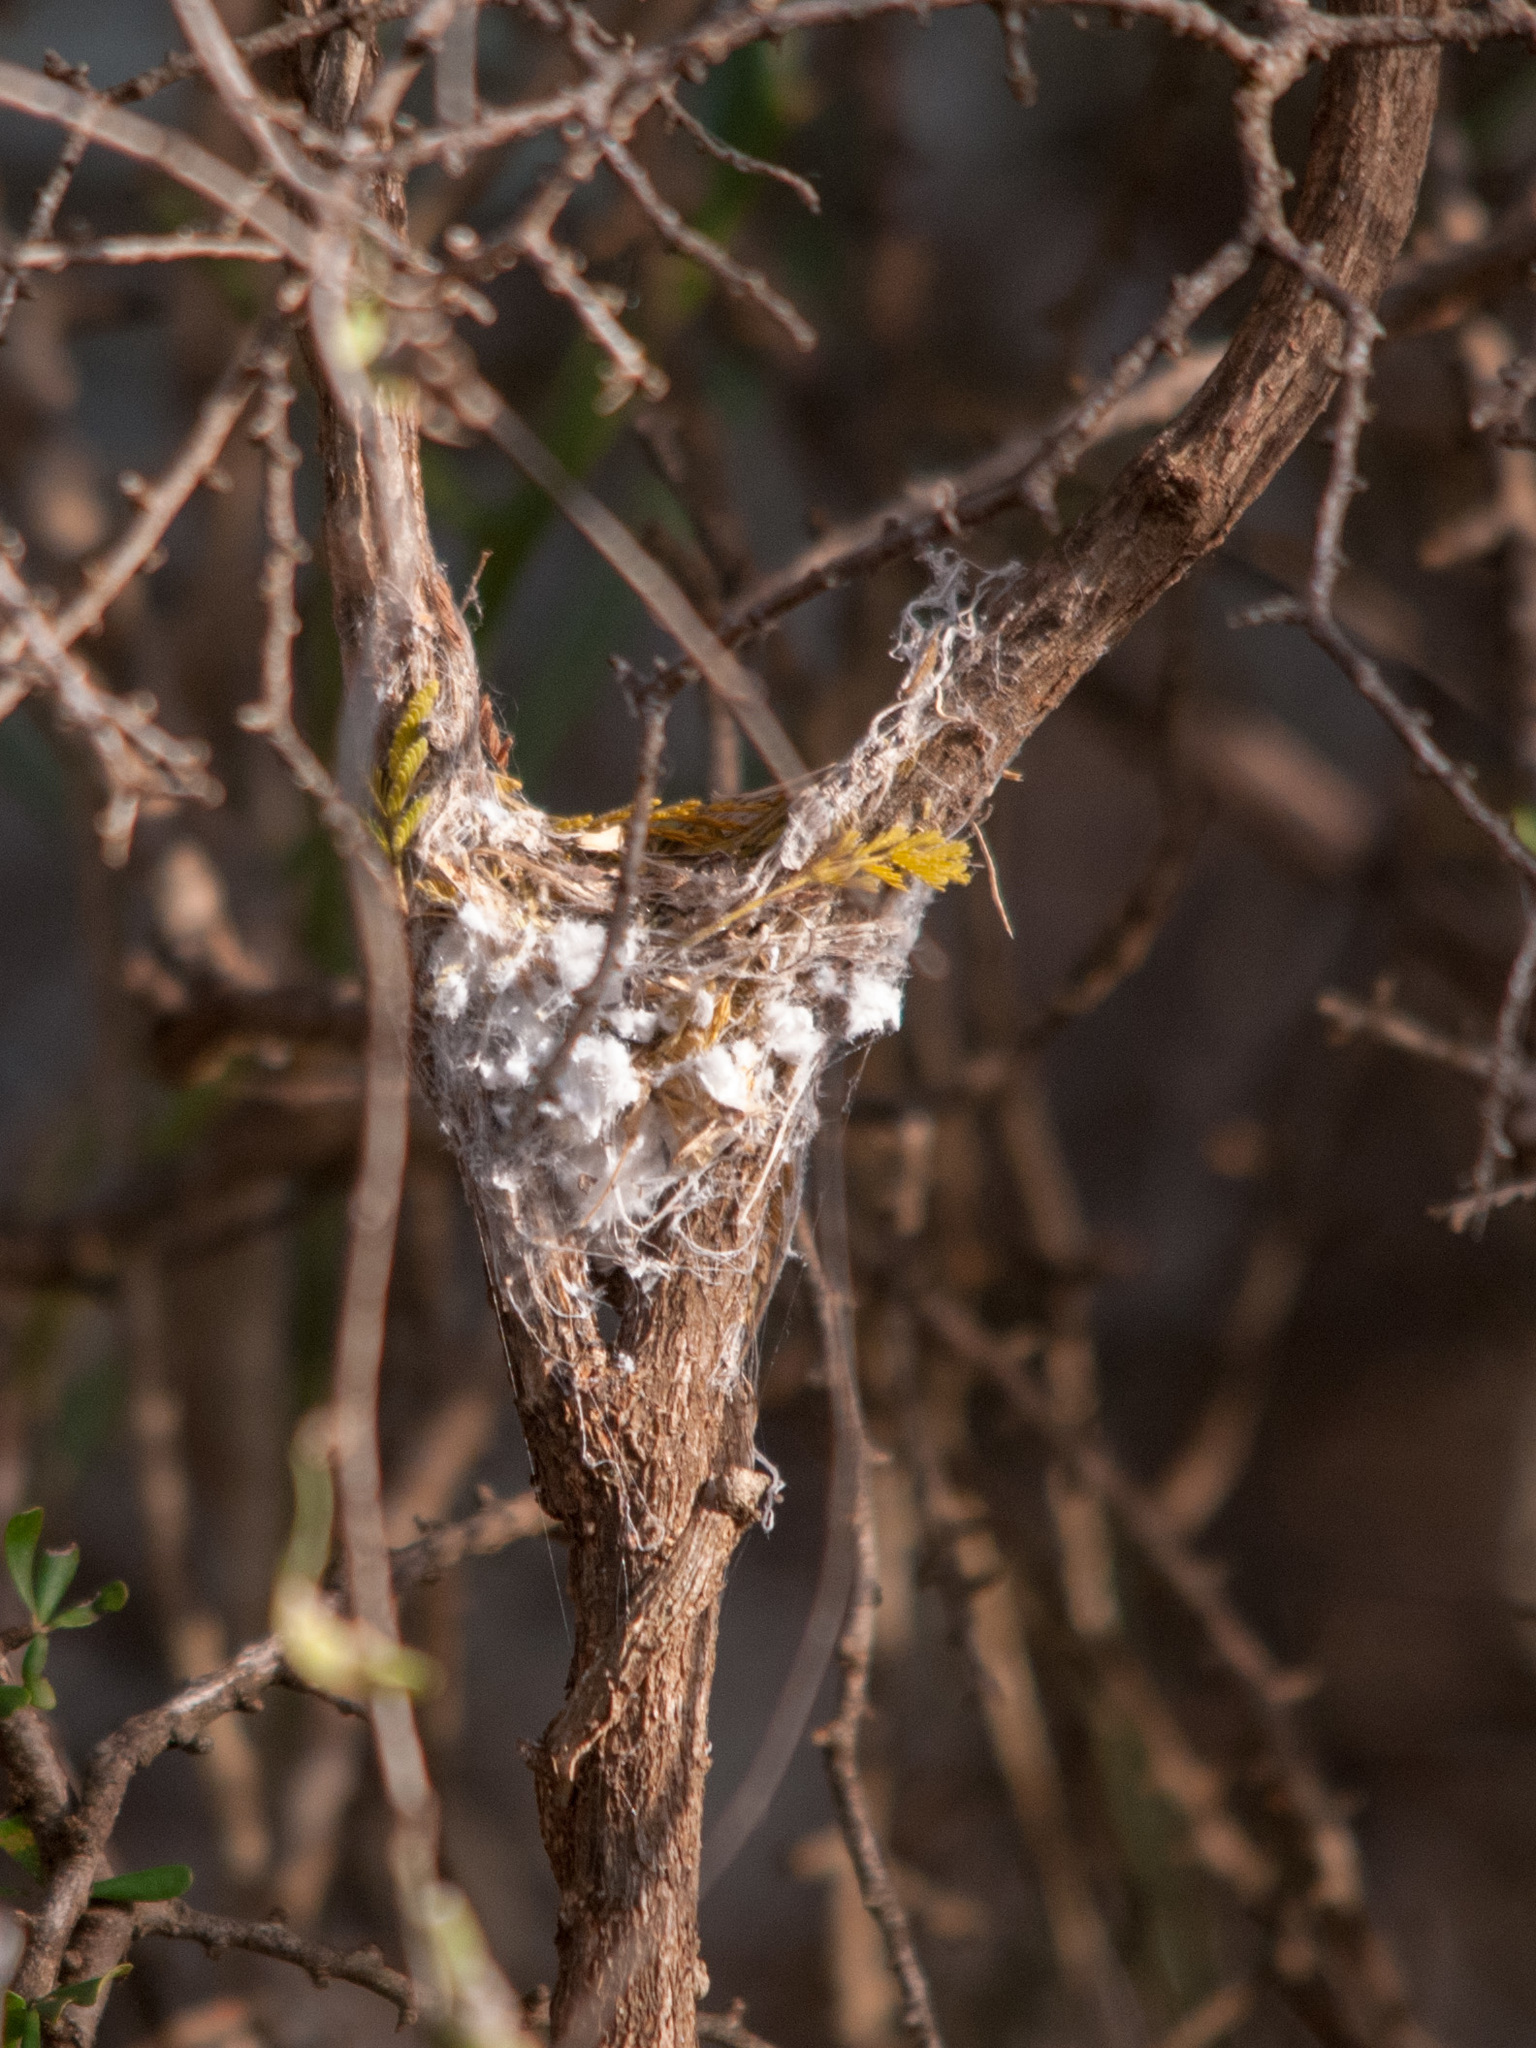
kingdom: Animalia
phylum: Chordata
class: Aves
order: Passeriformes
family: Monarchidae
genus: Terpsiphone
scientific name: Terpsiphone mutata
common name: Malagasy paradise flycatcher
